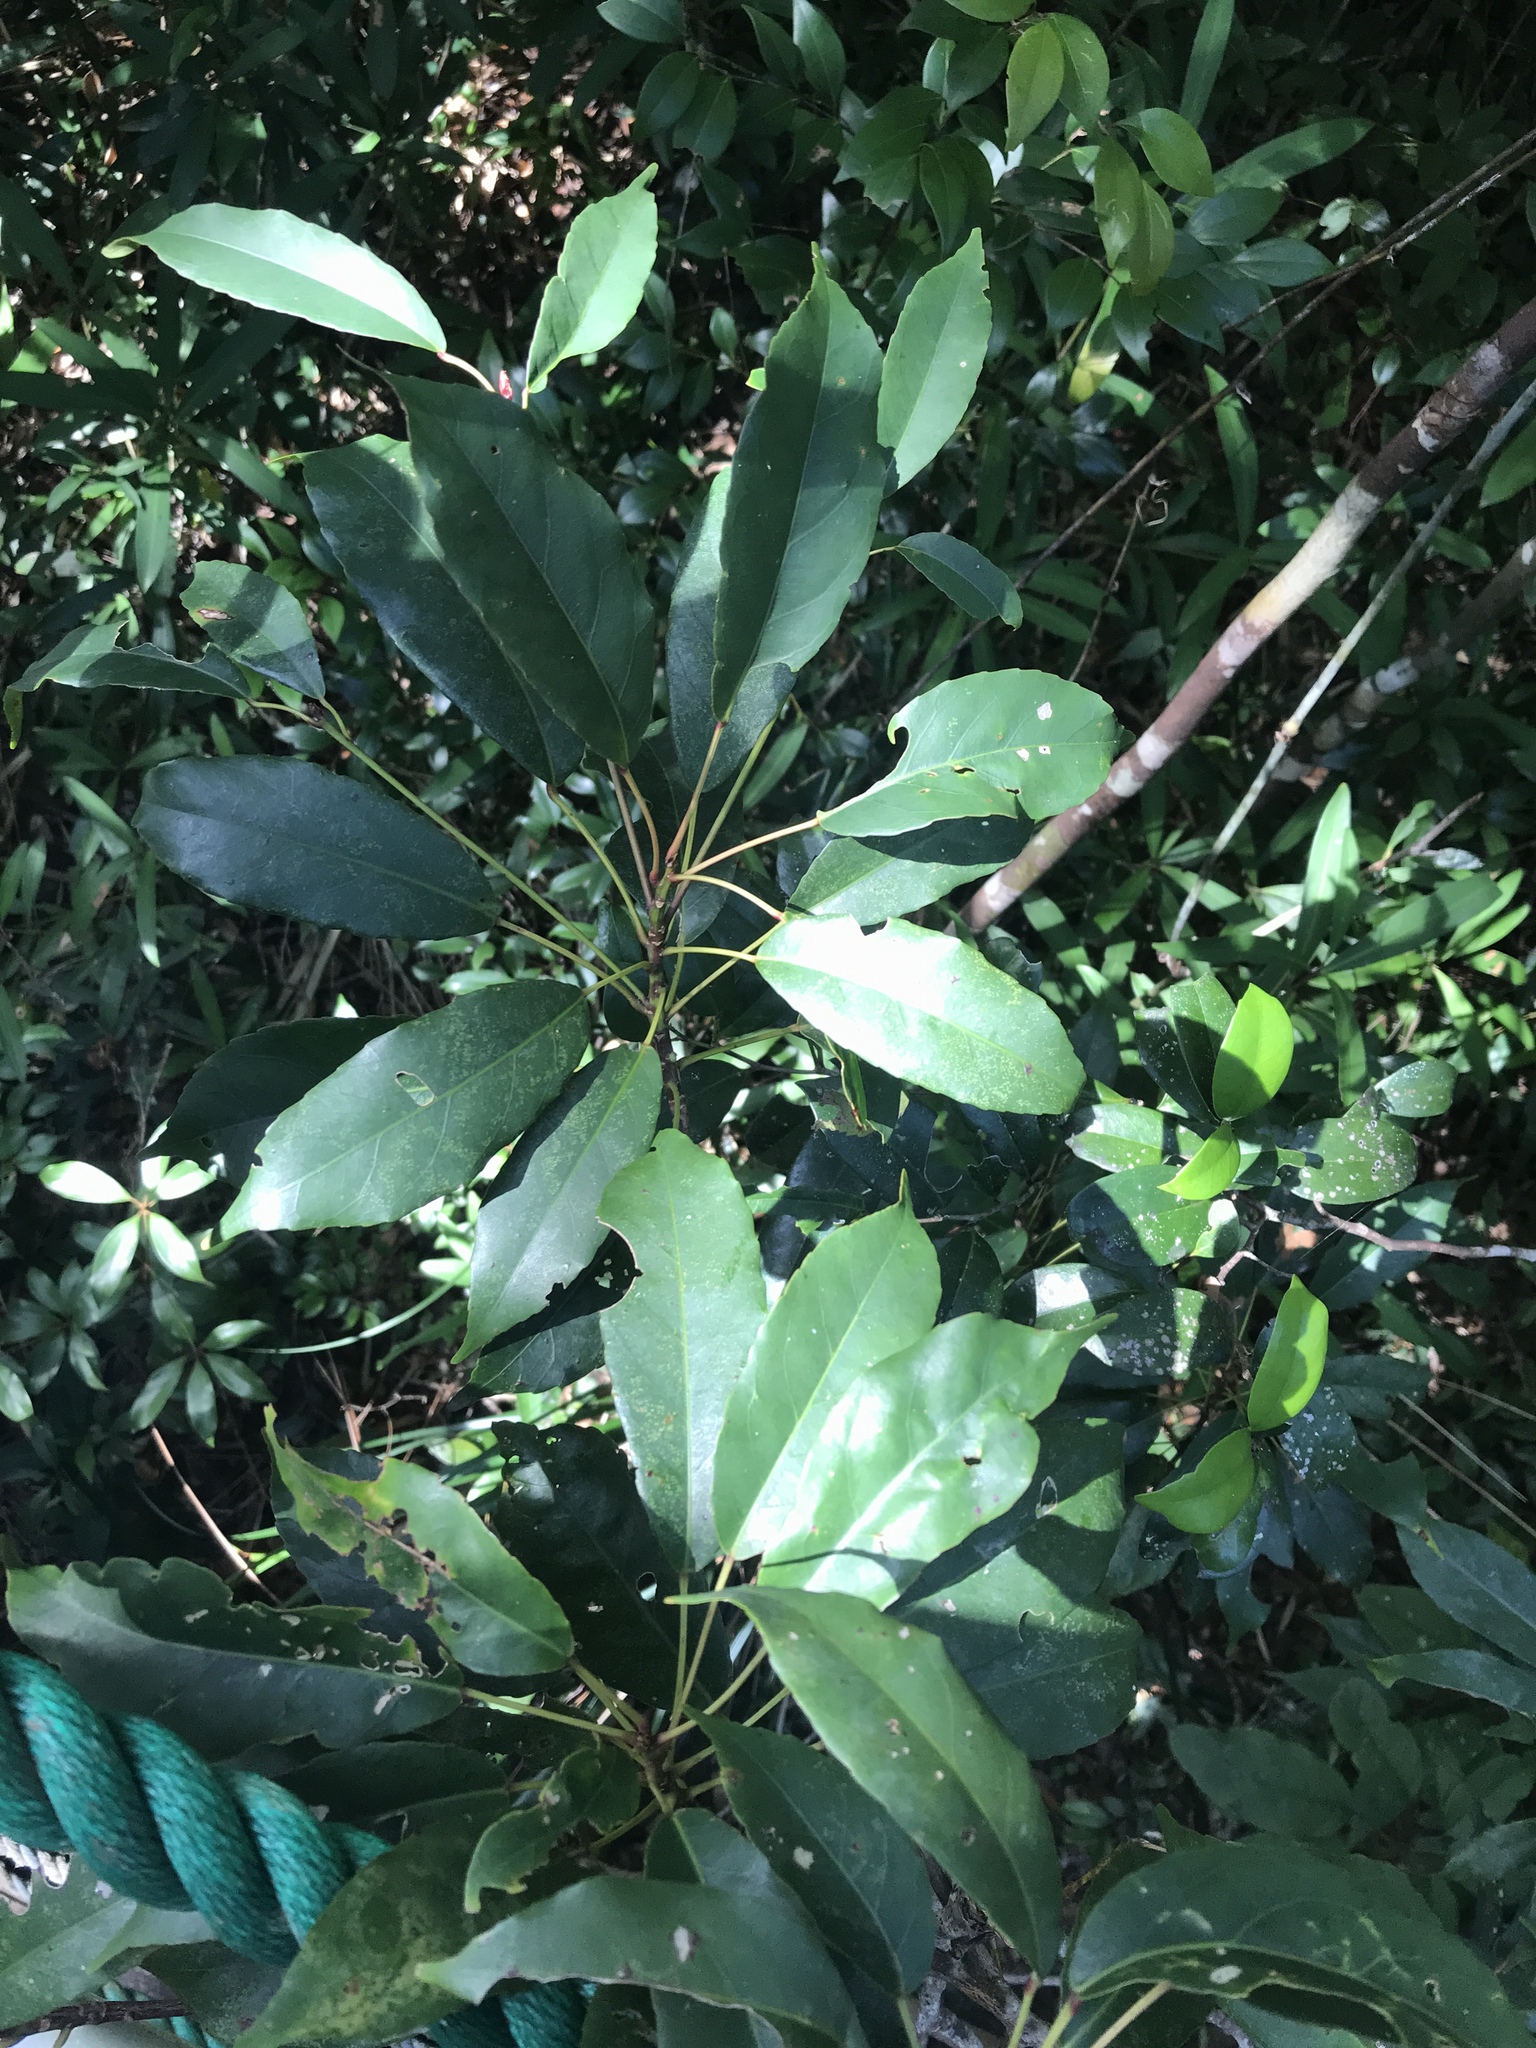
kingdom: Plantae
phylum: Tracheophyta
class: Magnoliopsida
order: Oxalidales
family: Elaeocarpaceae
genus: Elaeocarpus
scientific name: Elaeocarpus japonicus
